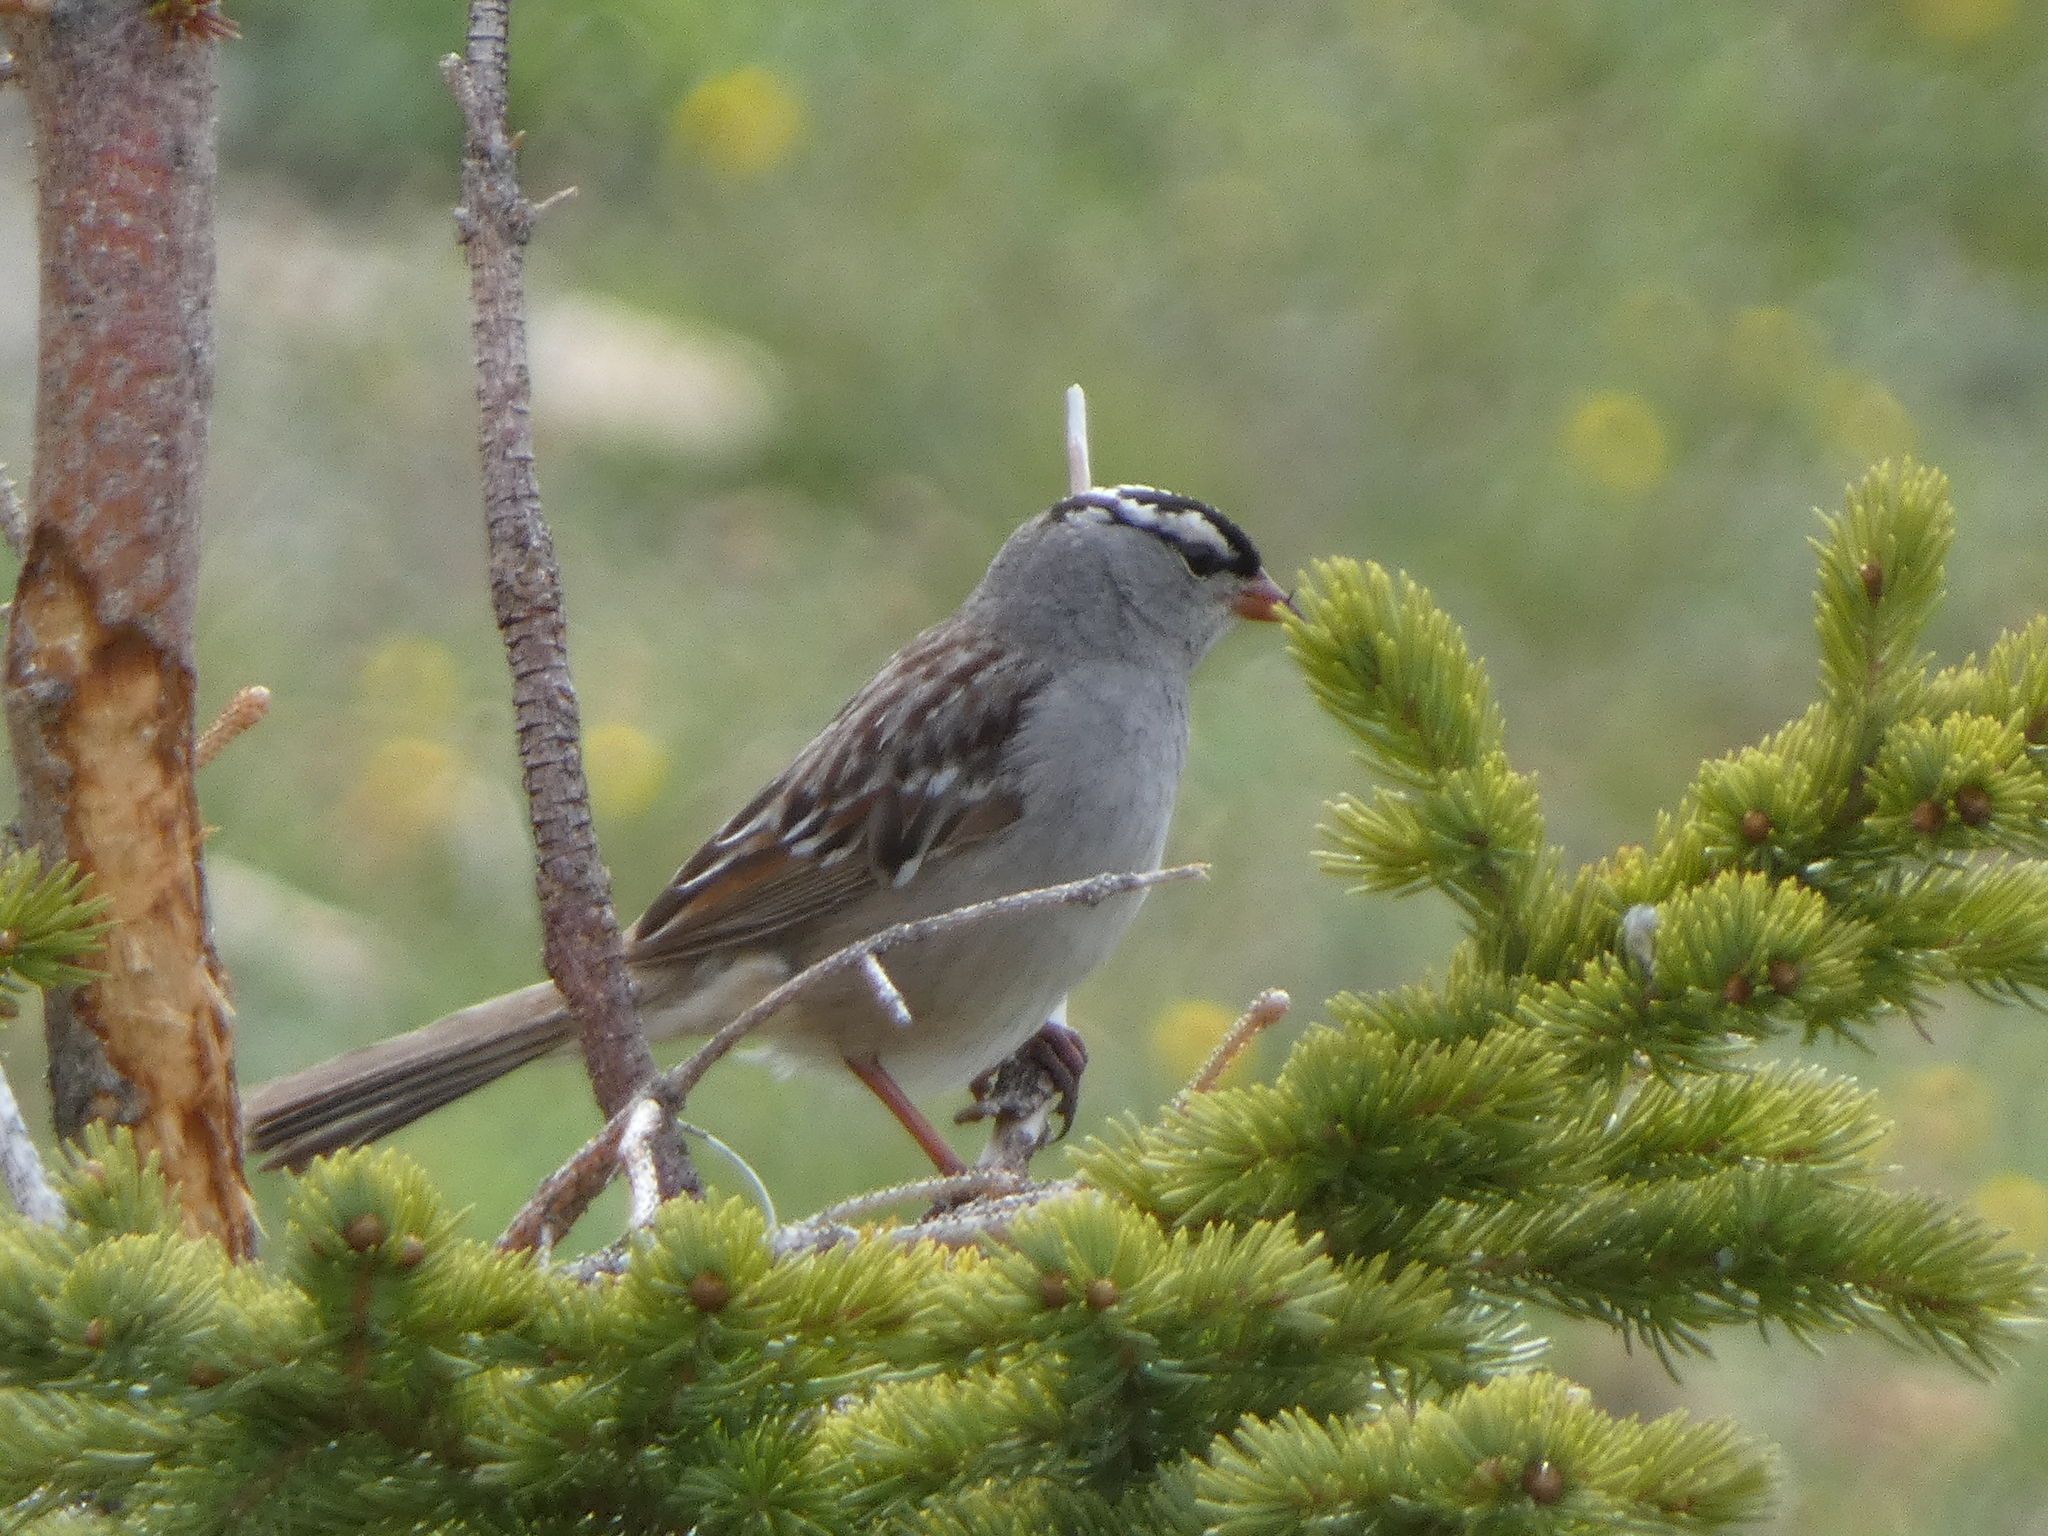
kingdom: Animalia
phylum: Chordata
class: Aves
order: Passeriformes
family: Passerellidae
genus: Zonotrichia
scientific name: Zonotrichia leucophrys
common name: White-crowned sparrow
